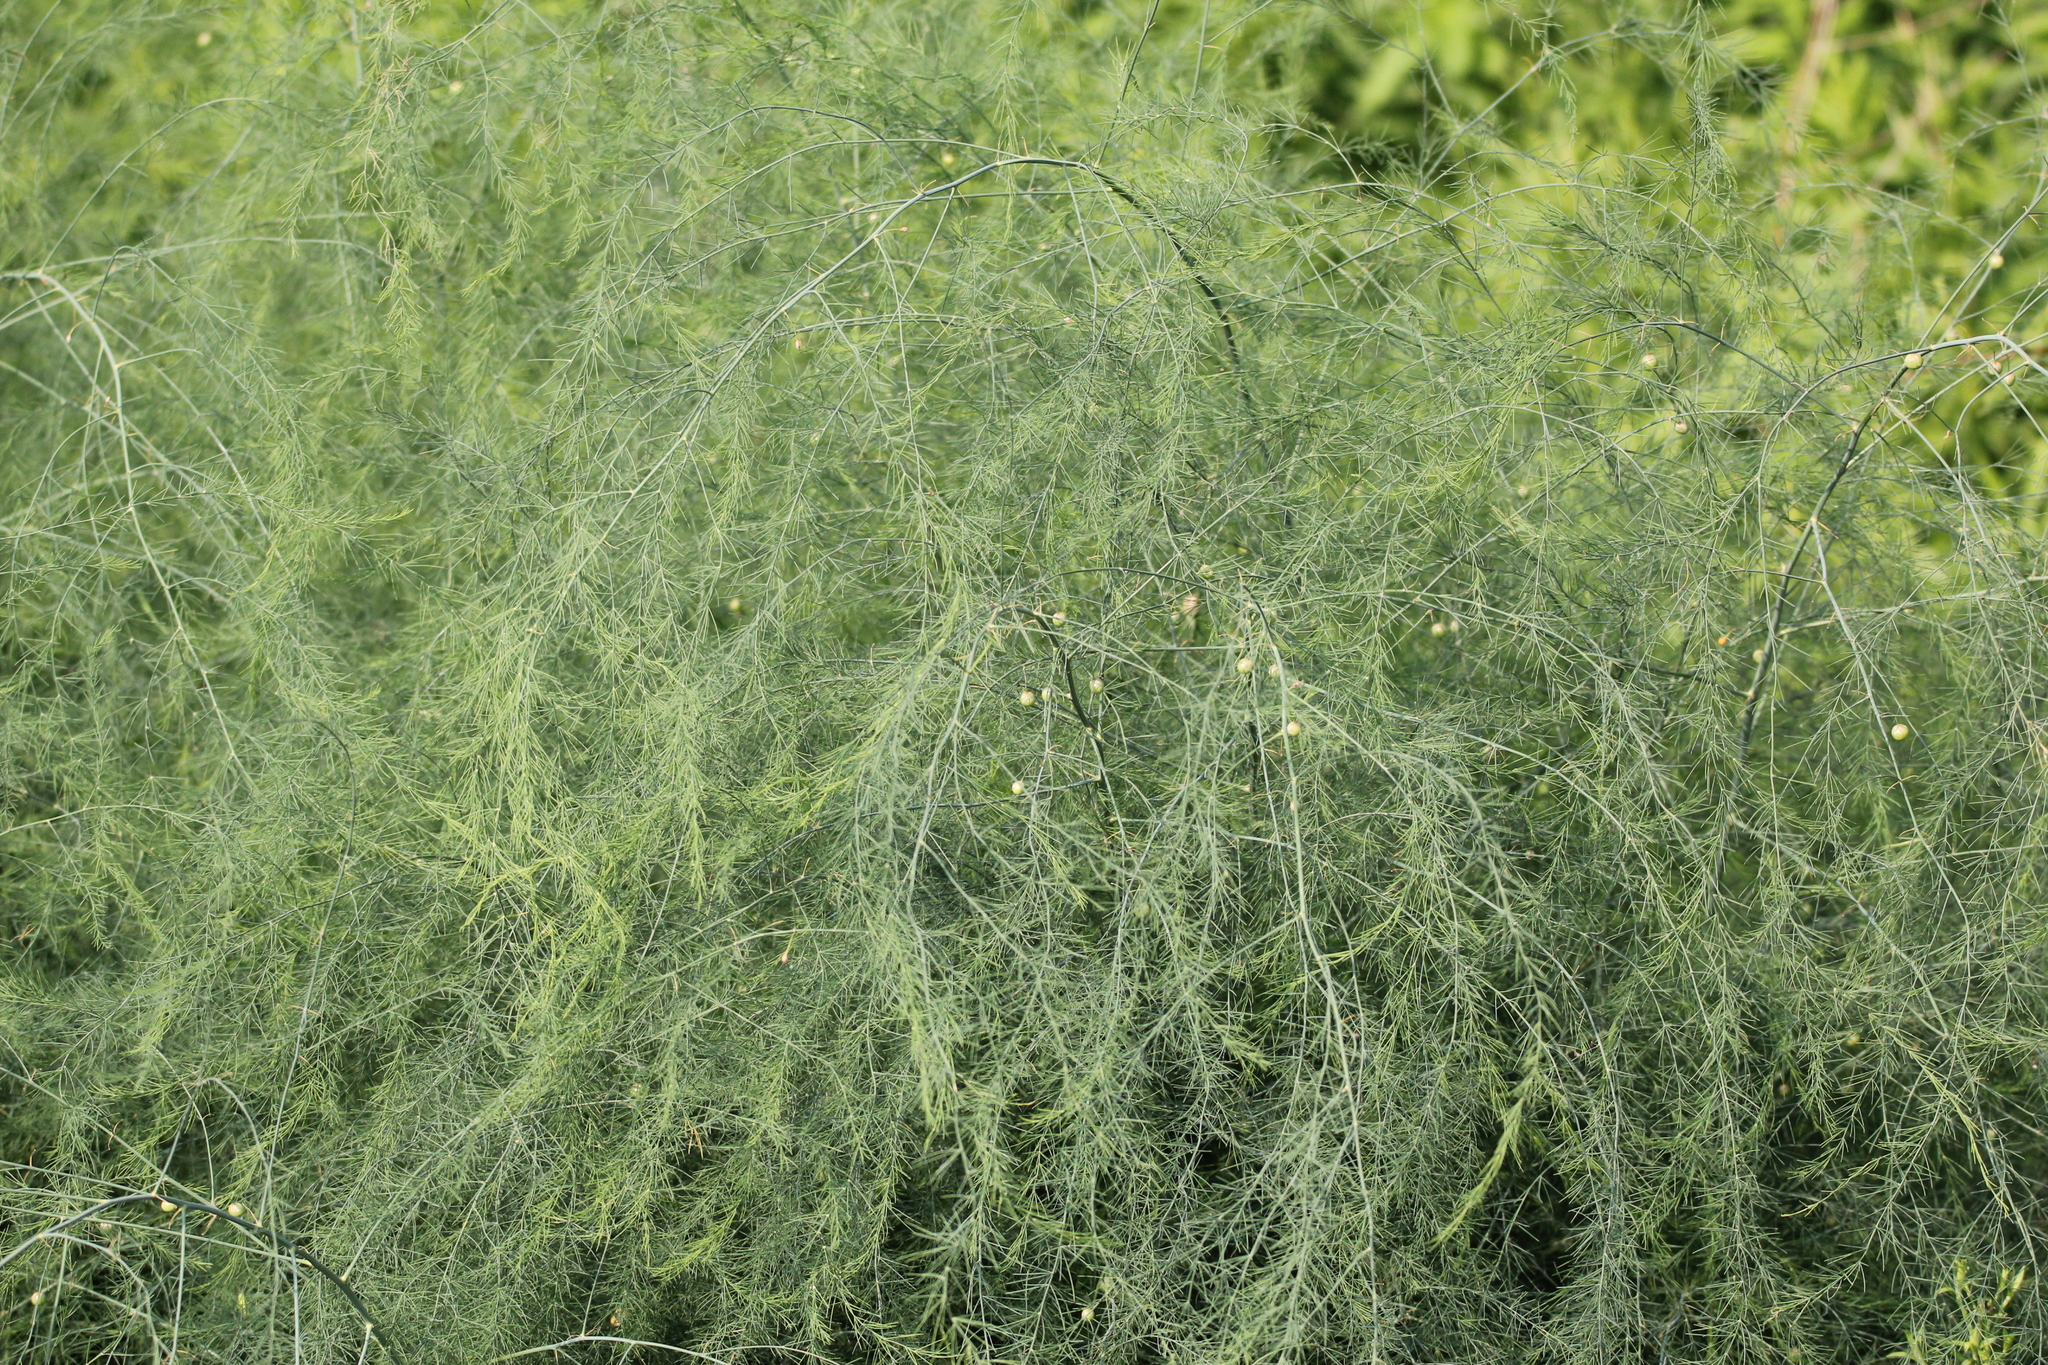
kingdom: Plantae
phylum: Tracheophyta
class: Liliopsida
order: Asparagales
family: Asparagaceae
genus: Asparagus
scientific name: Asparagus officinalis
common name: Garden asparagus
